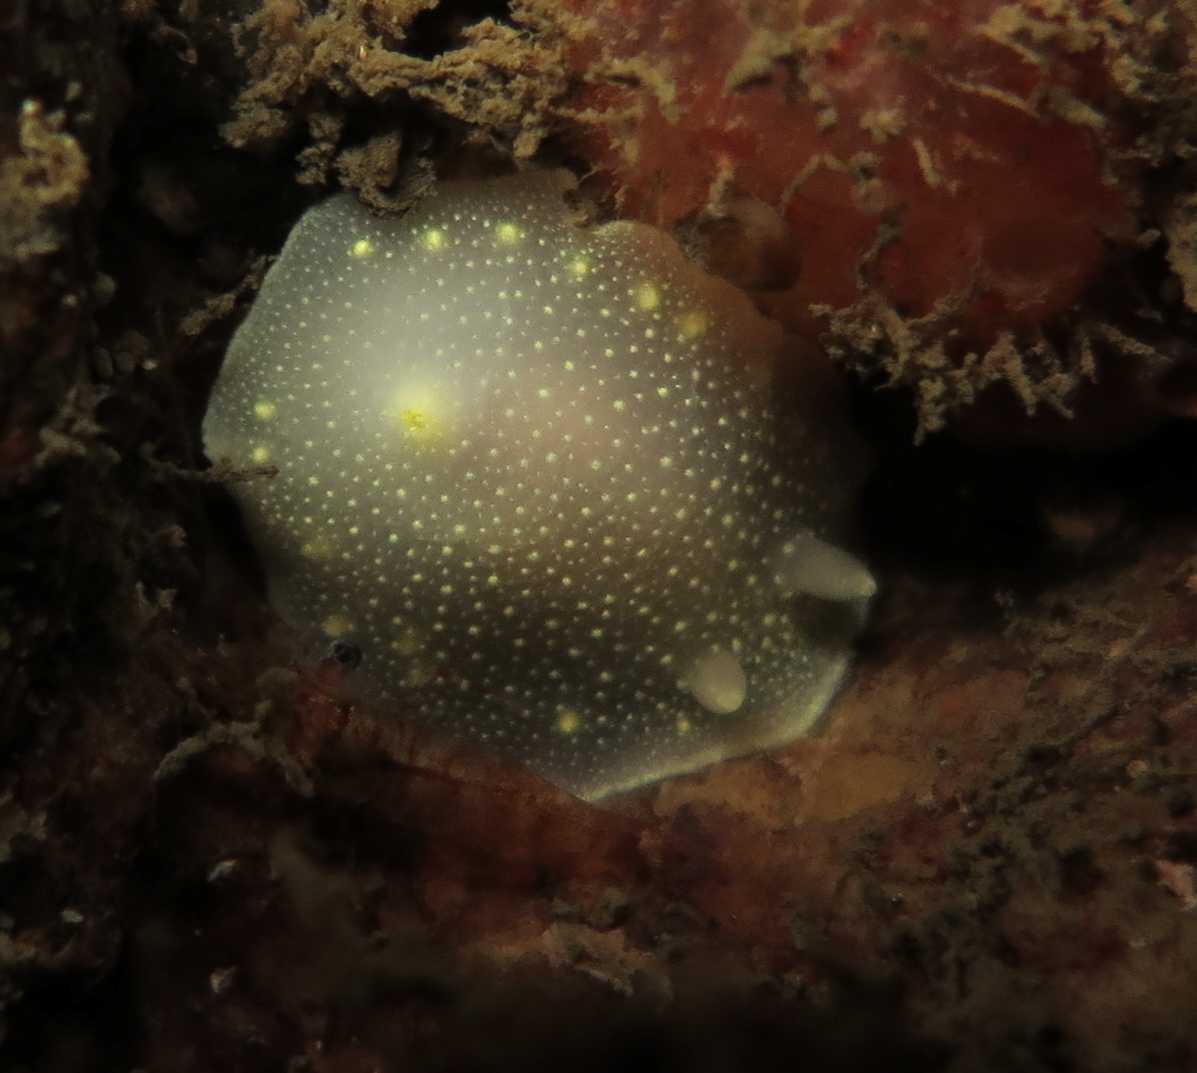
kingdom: Animalia
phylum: Mollusca
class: Gastropoda
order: Nudibranchia
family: Cadlinidae
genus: Cadlina
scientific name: Cadlina laevis
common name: White atlantic cadlina
